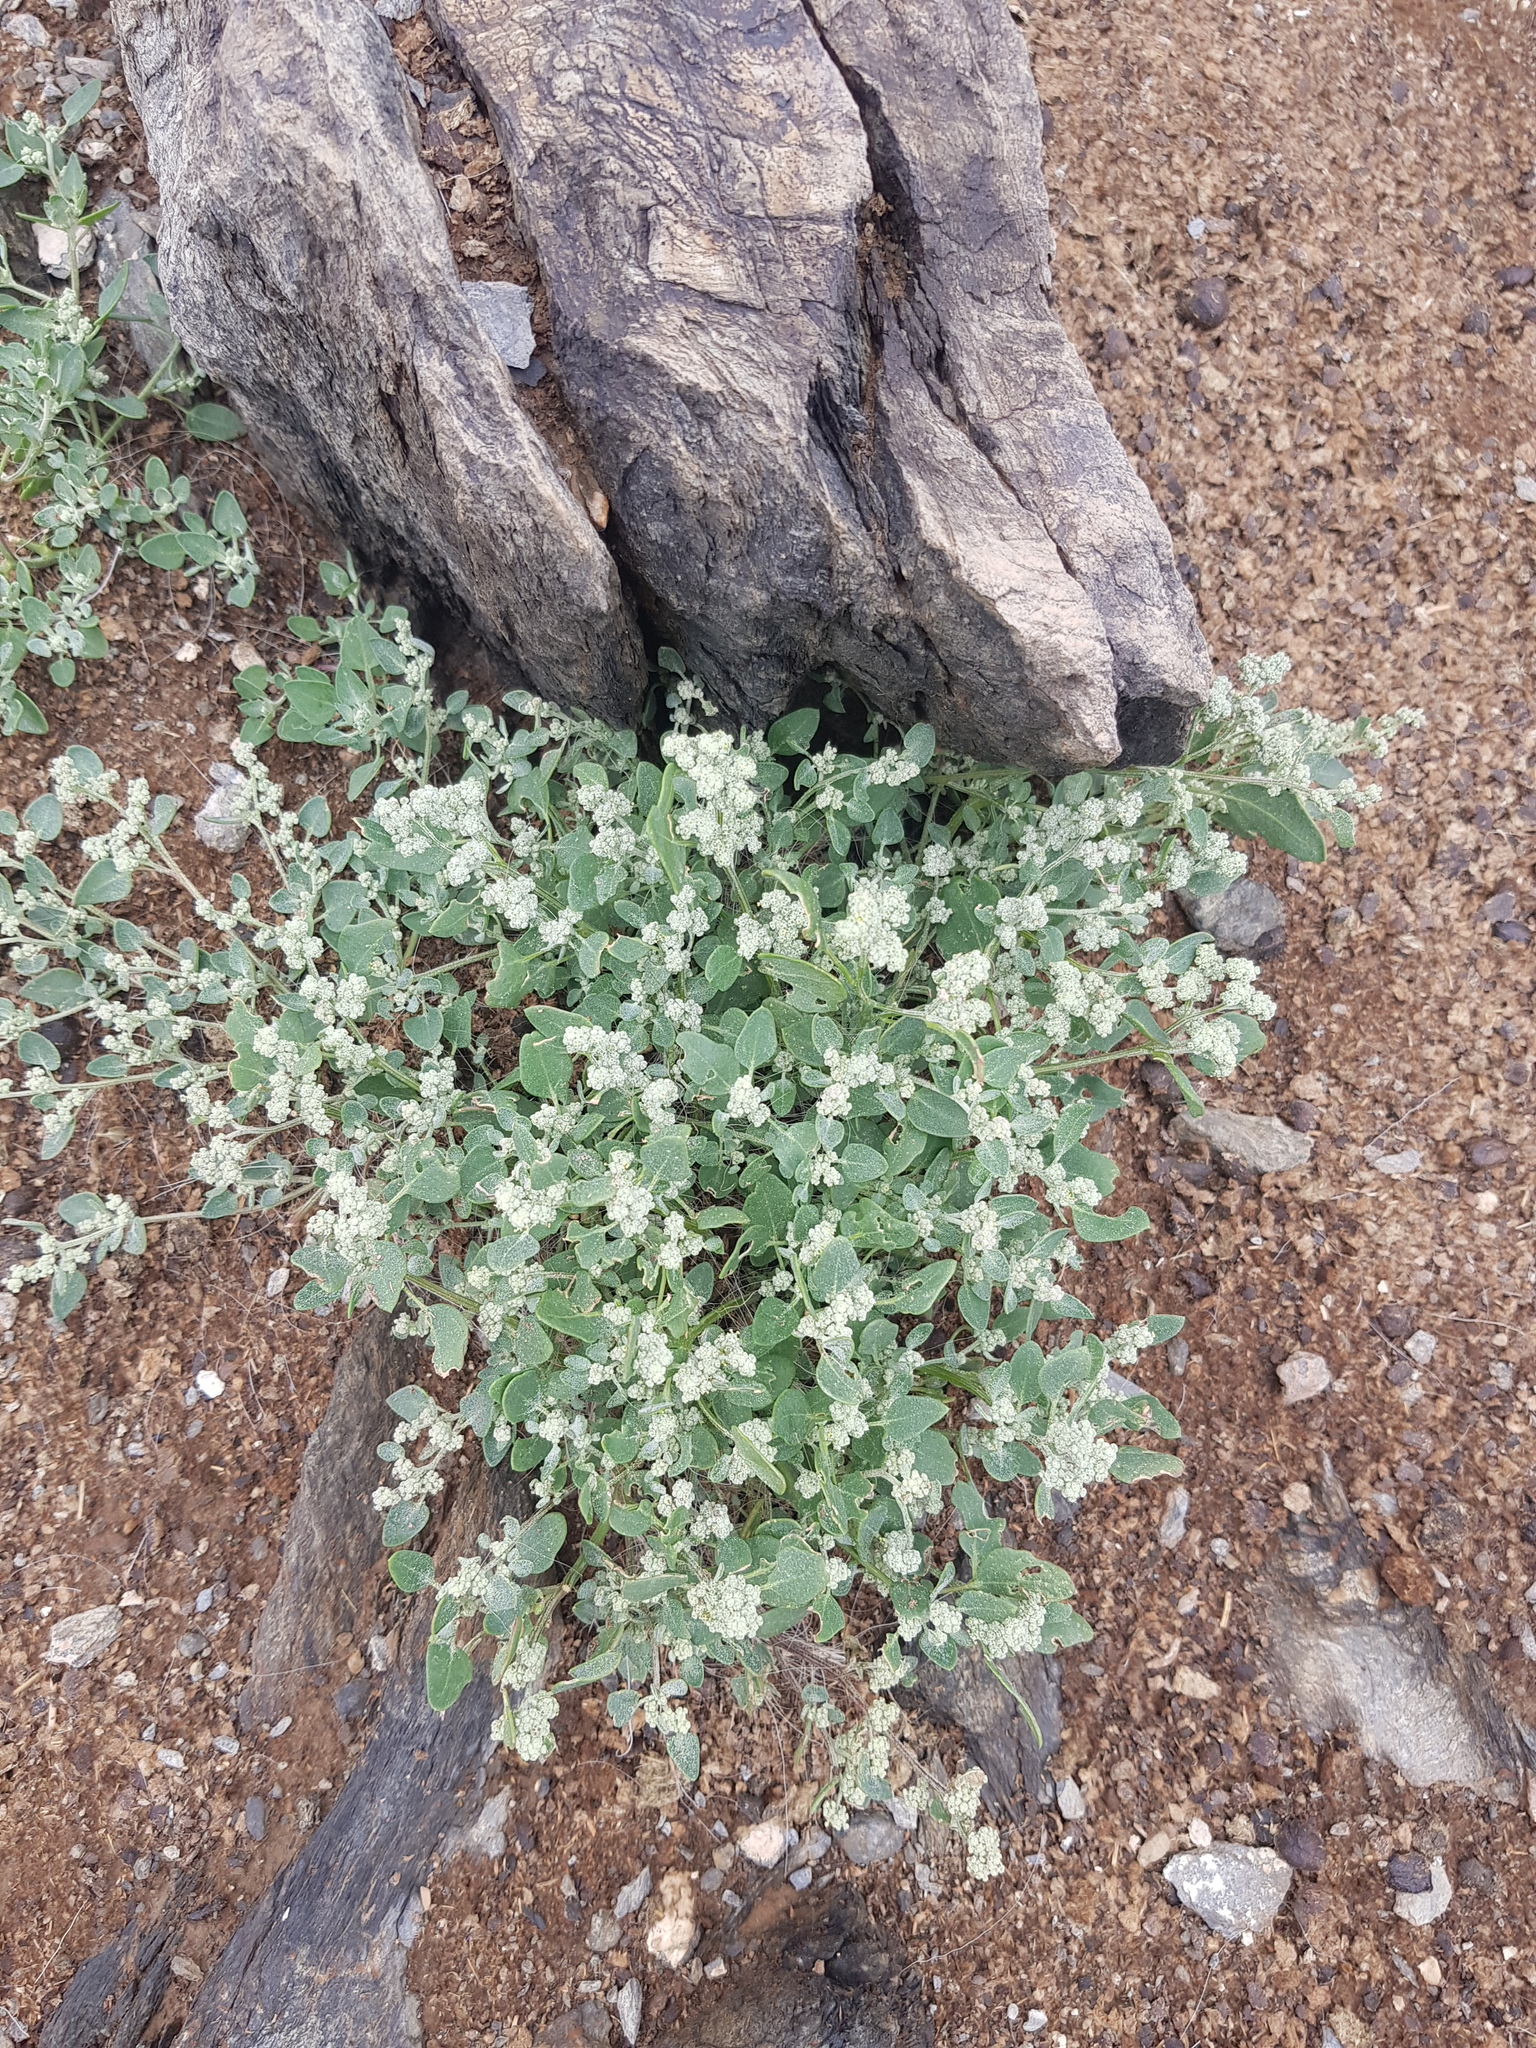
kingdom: Plantae
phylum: Tracheophyta
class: Magnoliopsida
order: Caryophyllales
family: Amaranthaceae
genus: Chenopodium
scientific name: Chenopodium karoi
